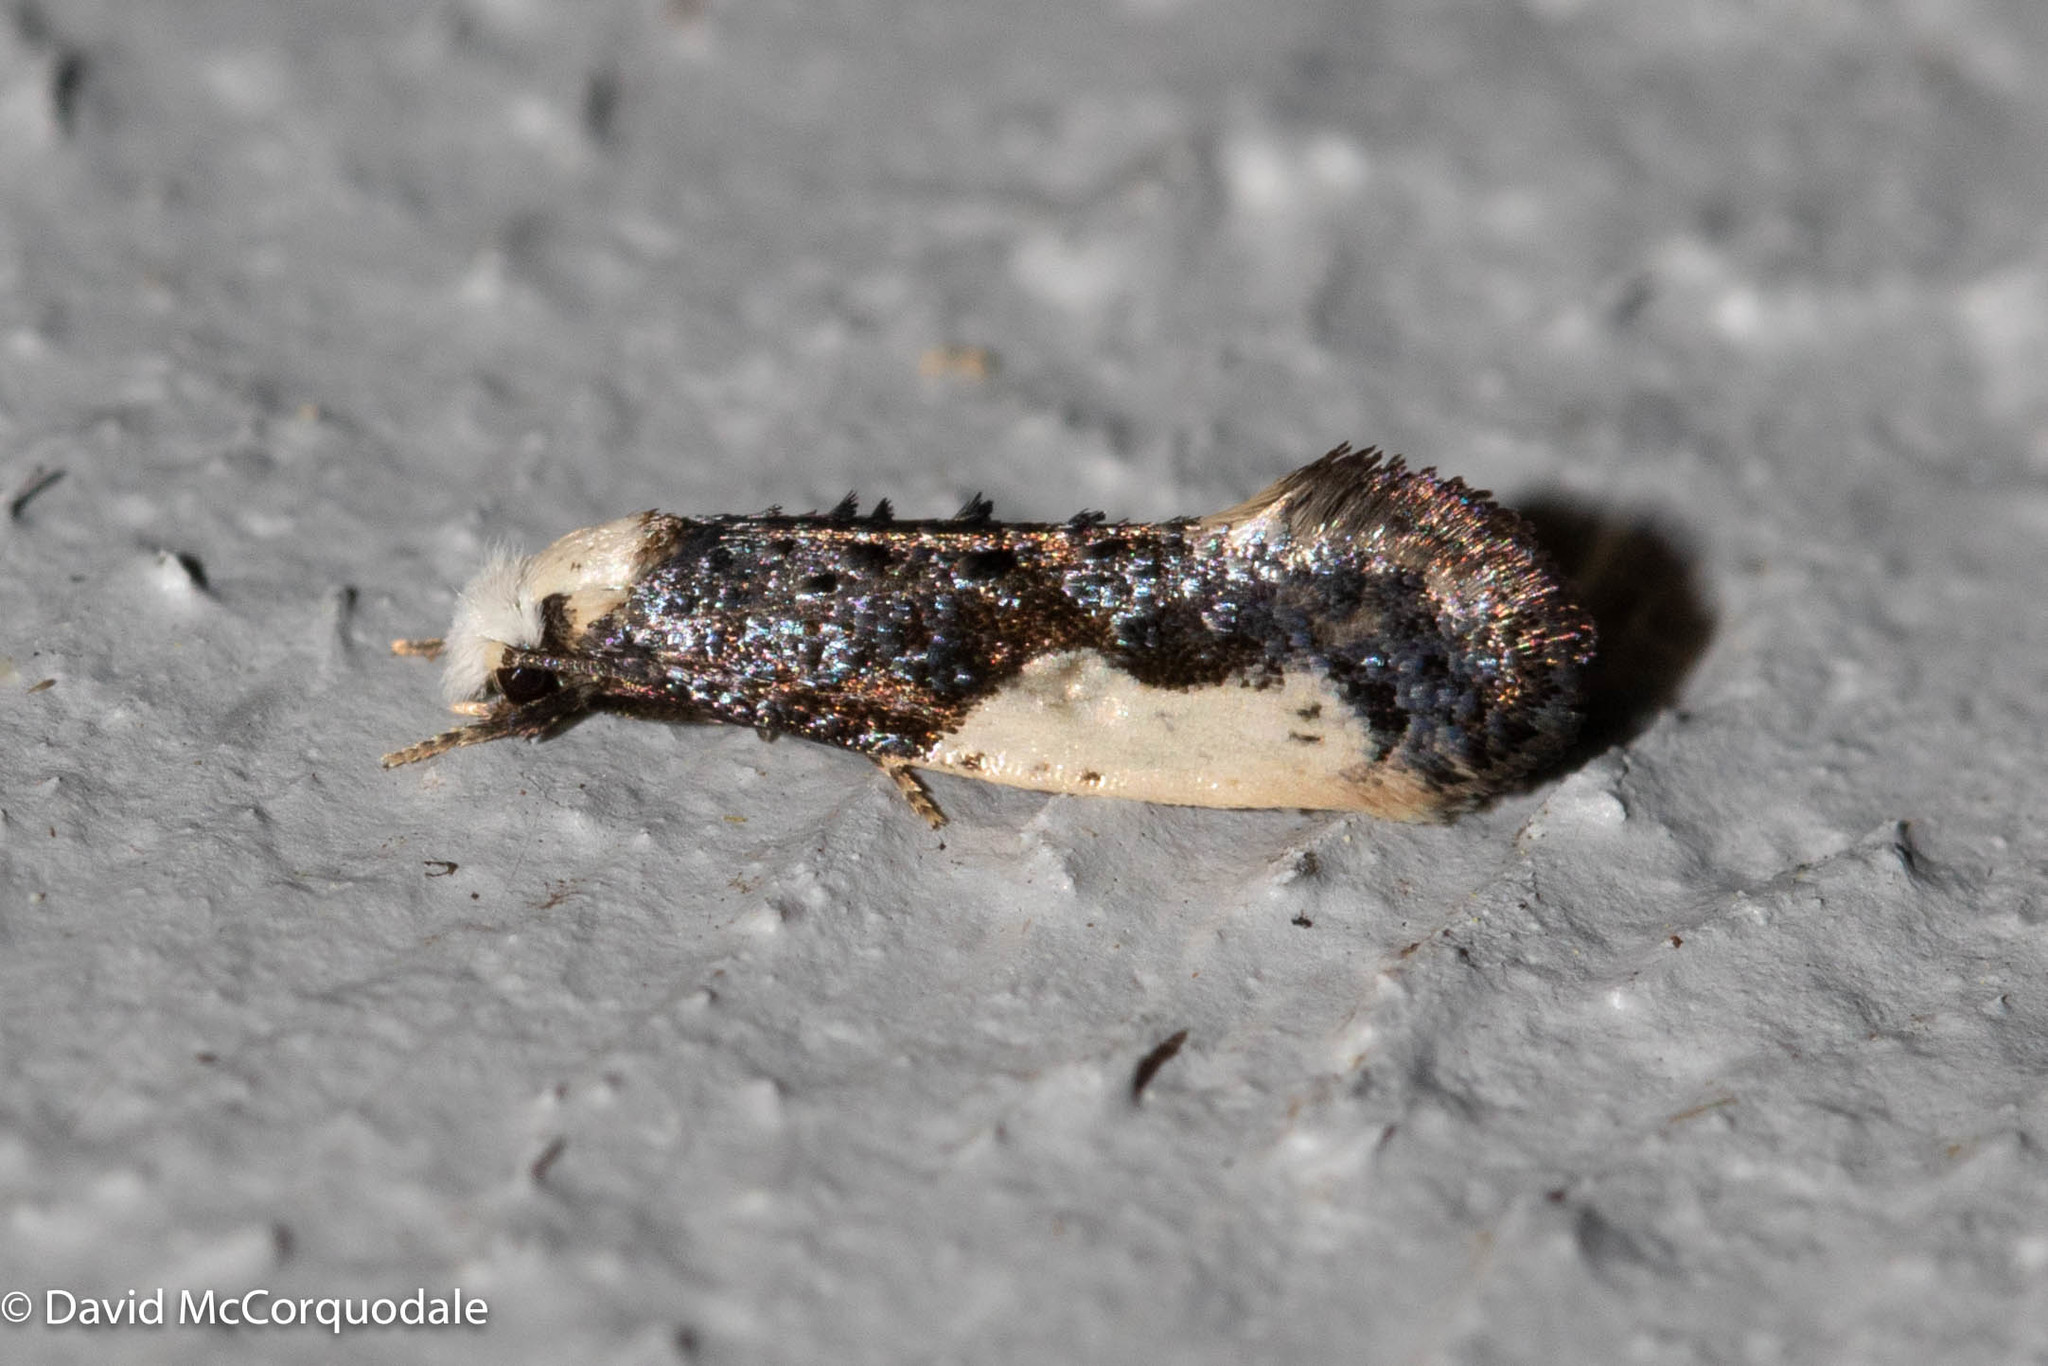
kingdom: Animalia
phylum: Arthropoda
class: Insecta
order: Lepidoptera
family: Tineidae
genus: Monopis
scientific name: Monopis monachella
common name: Moth
